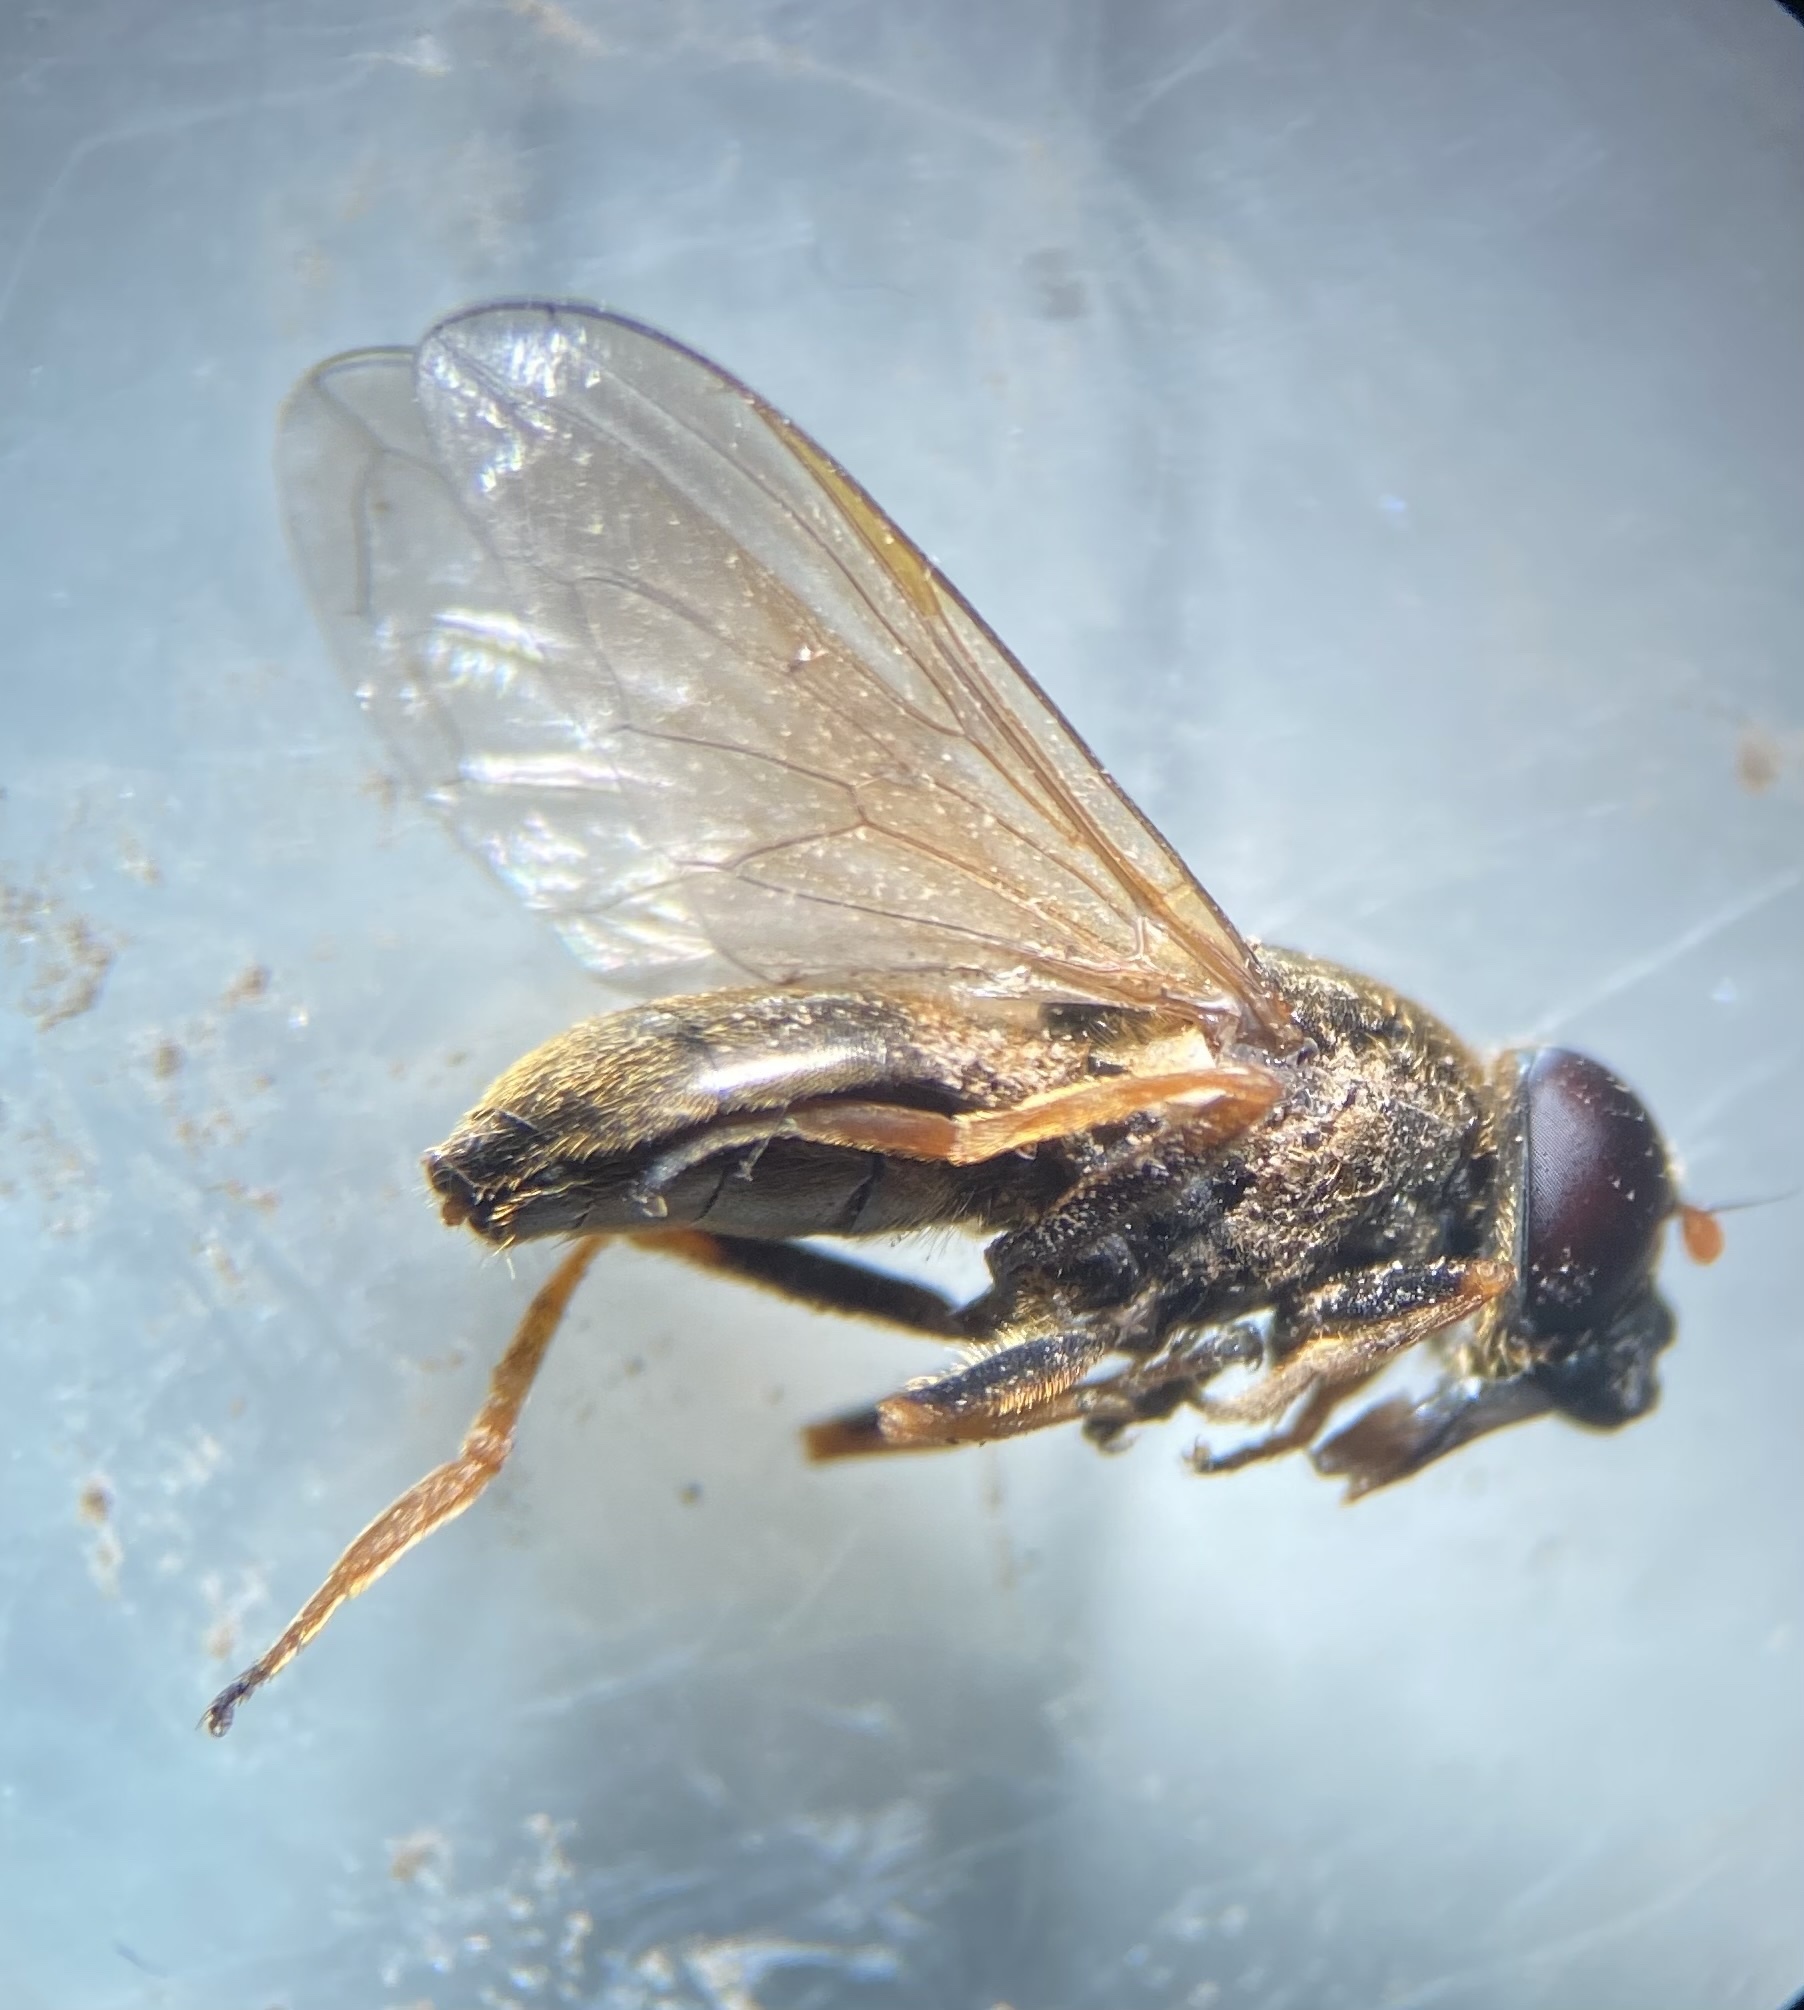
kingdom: Animalia
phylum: Arthropoda
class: Insecta
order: Diptera
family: Syrphidae
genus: Cheilosia
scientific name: Cheilosia fraterna
